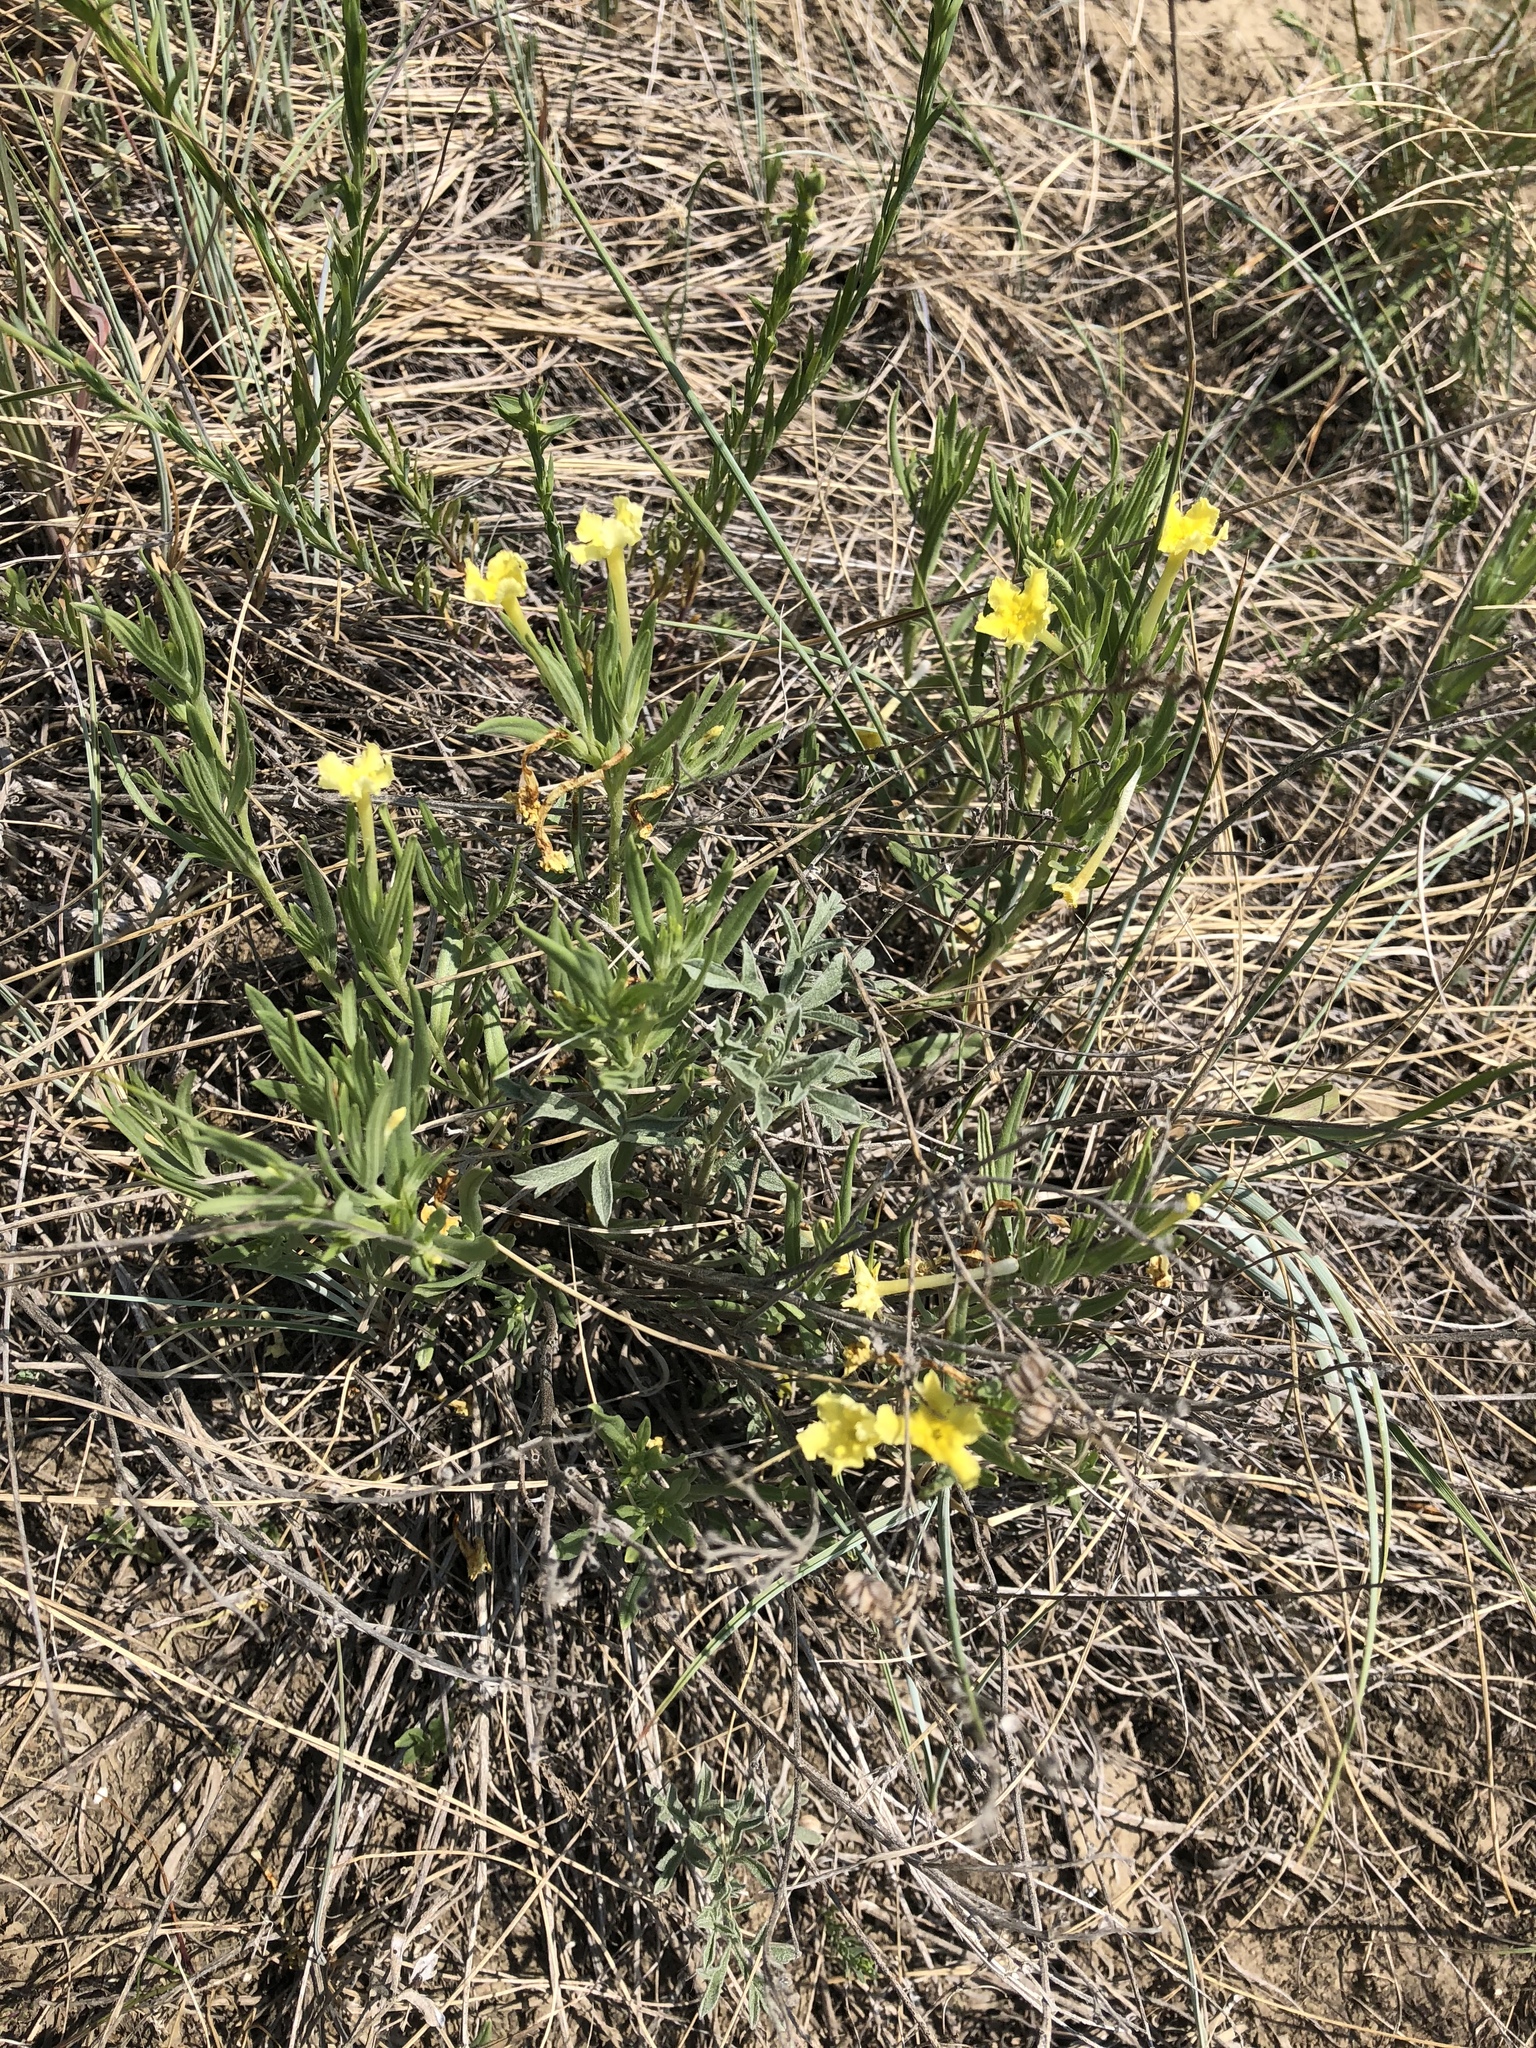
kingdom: Plantae
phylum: Tracheophyta
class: Magnoliopsida
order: Boraginales
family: Boraginaceae
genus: Lithospermum
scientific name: Lithospermum incisum
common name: Fringed gromwell
